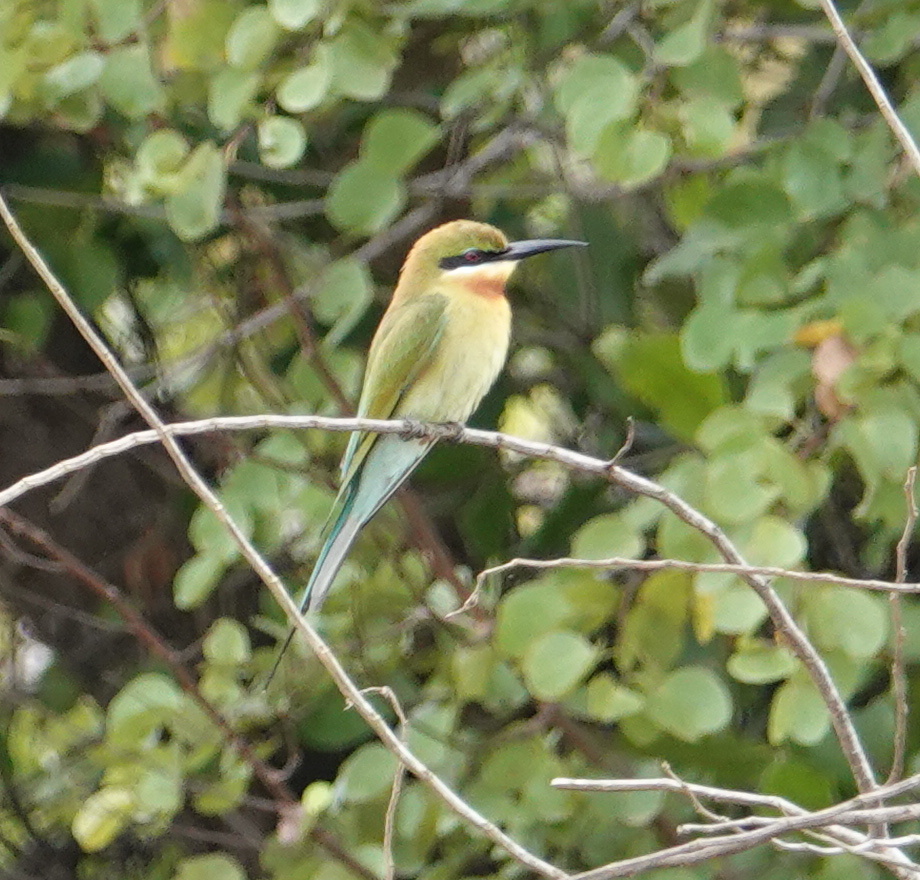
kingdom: Animalia
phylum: Chordata
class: Aves
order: Coraciiformes
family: Meropidae
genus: Merops
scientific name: Merops philippinus
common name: Blue-tailed bee-eater
